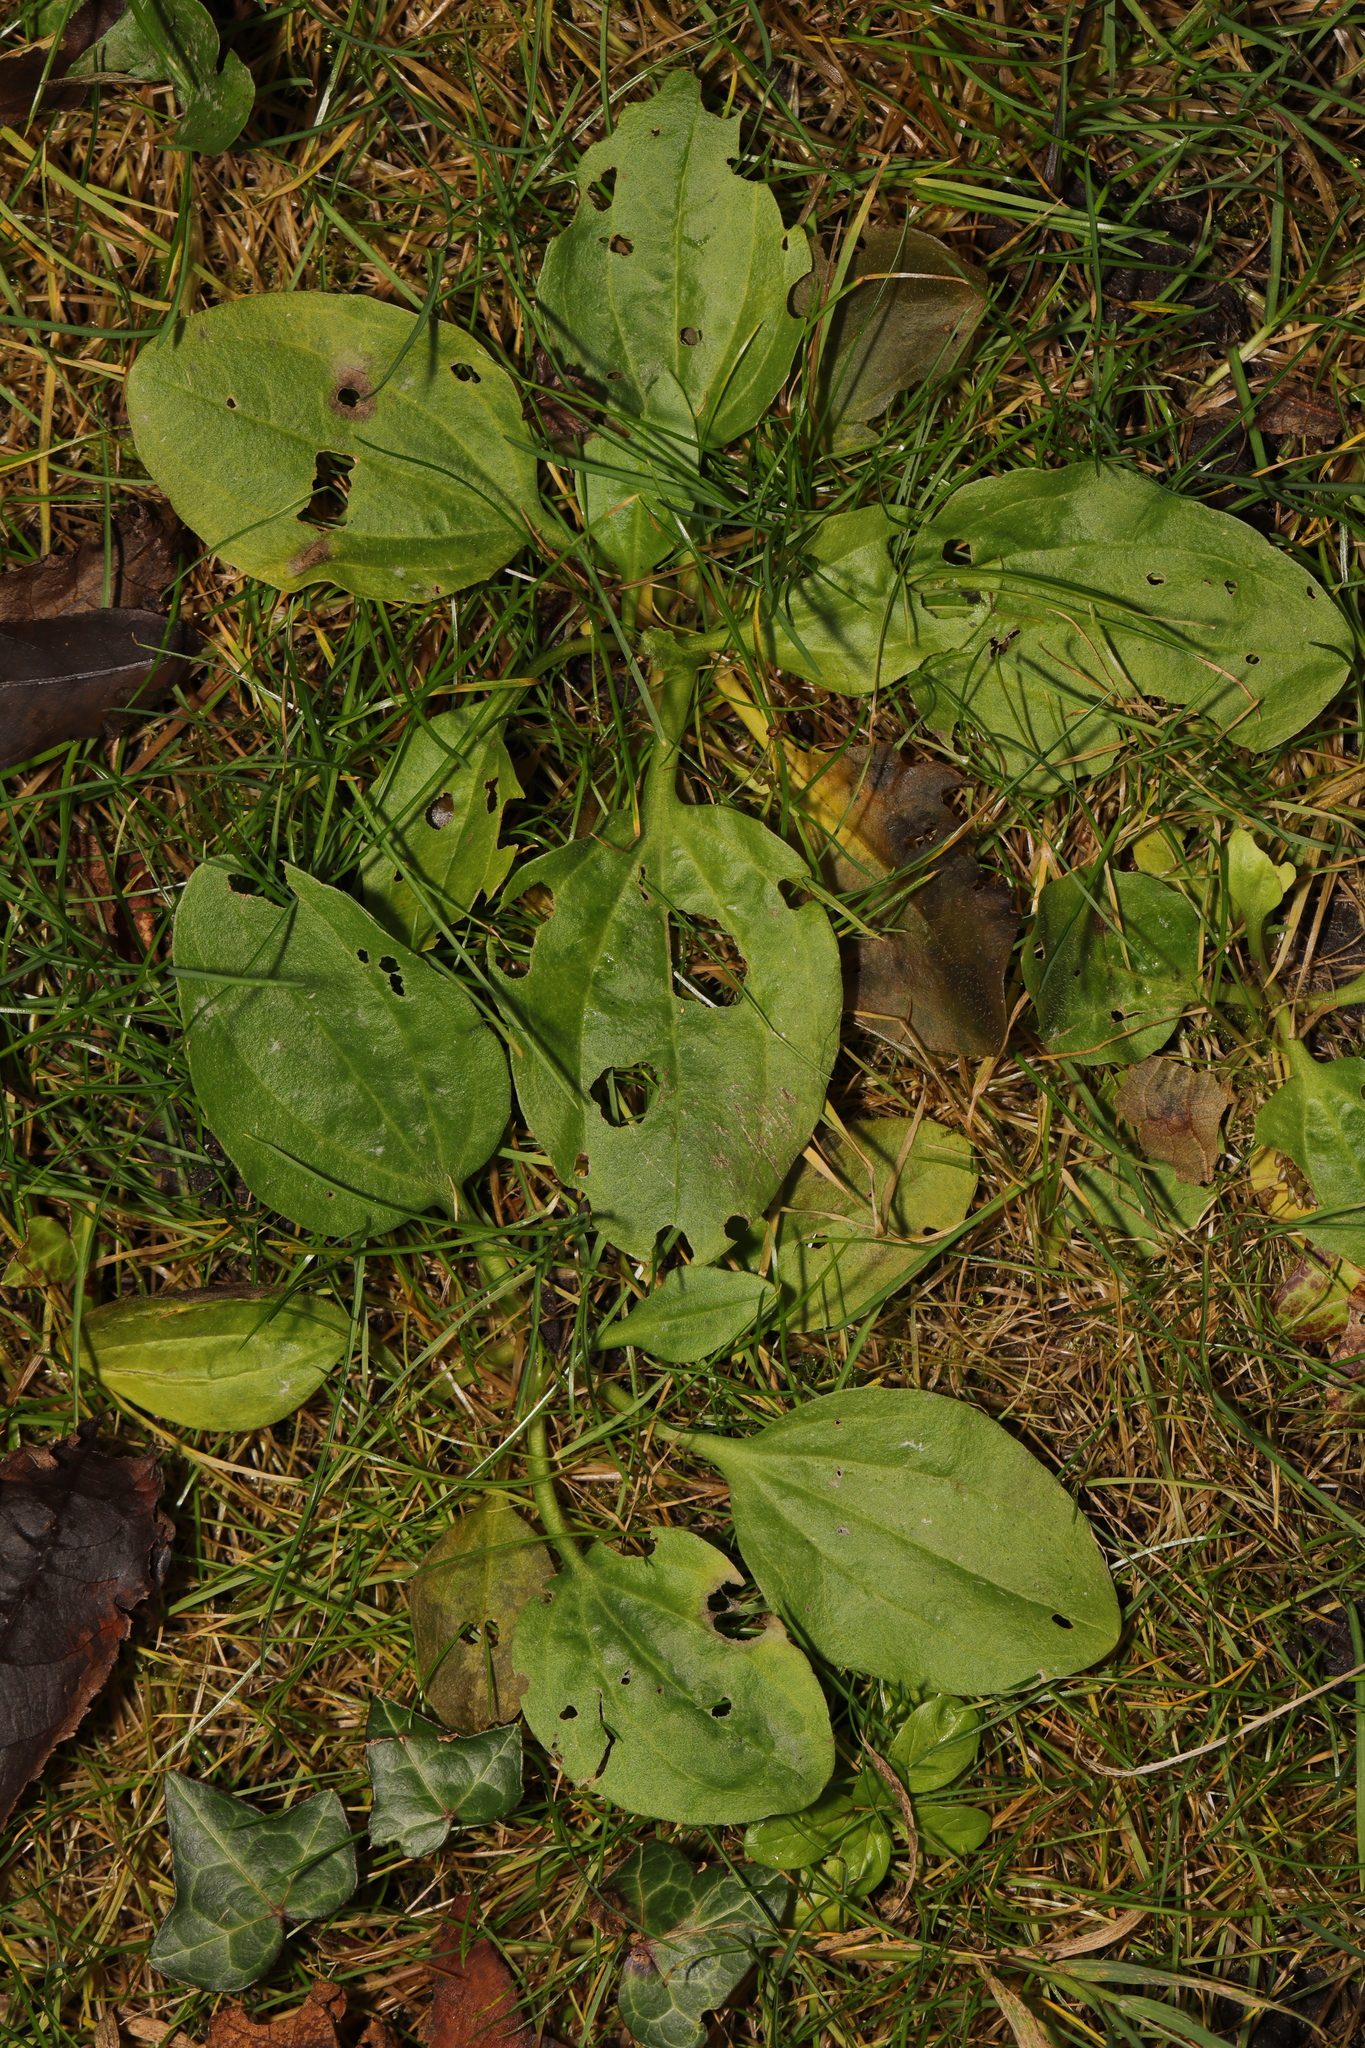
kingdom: Plantae
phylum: Tracheophyta
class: Magnoliopsida
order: Lamiales
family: Plantaginaceae
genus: Plantago
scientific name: Plantago major
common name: Common plantain
